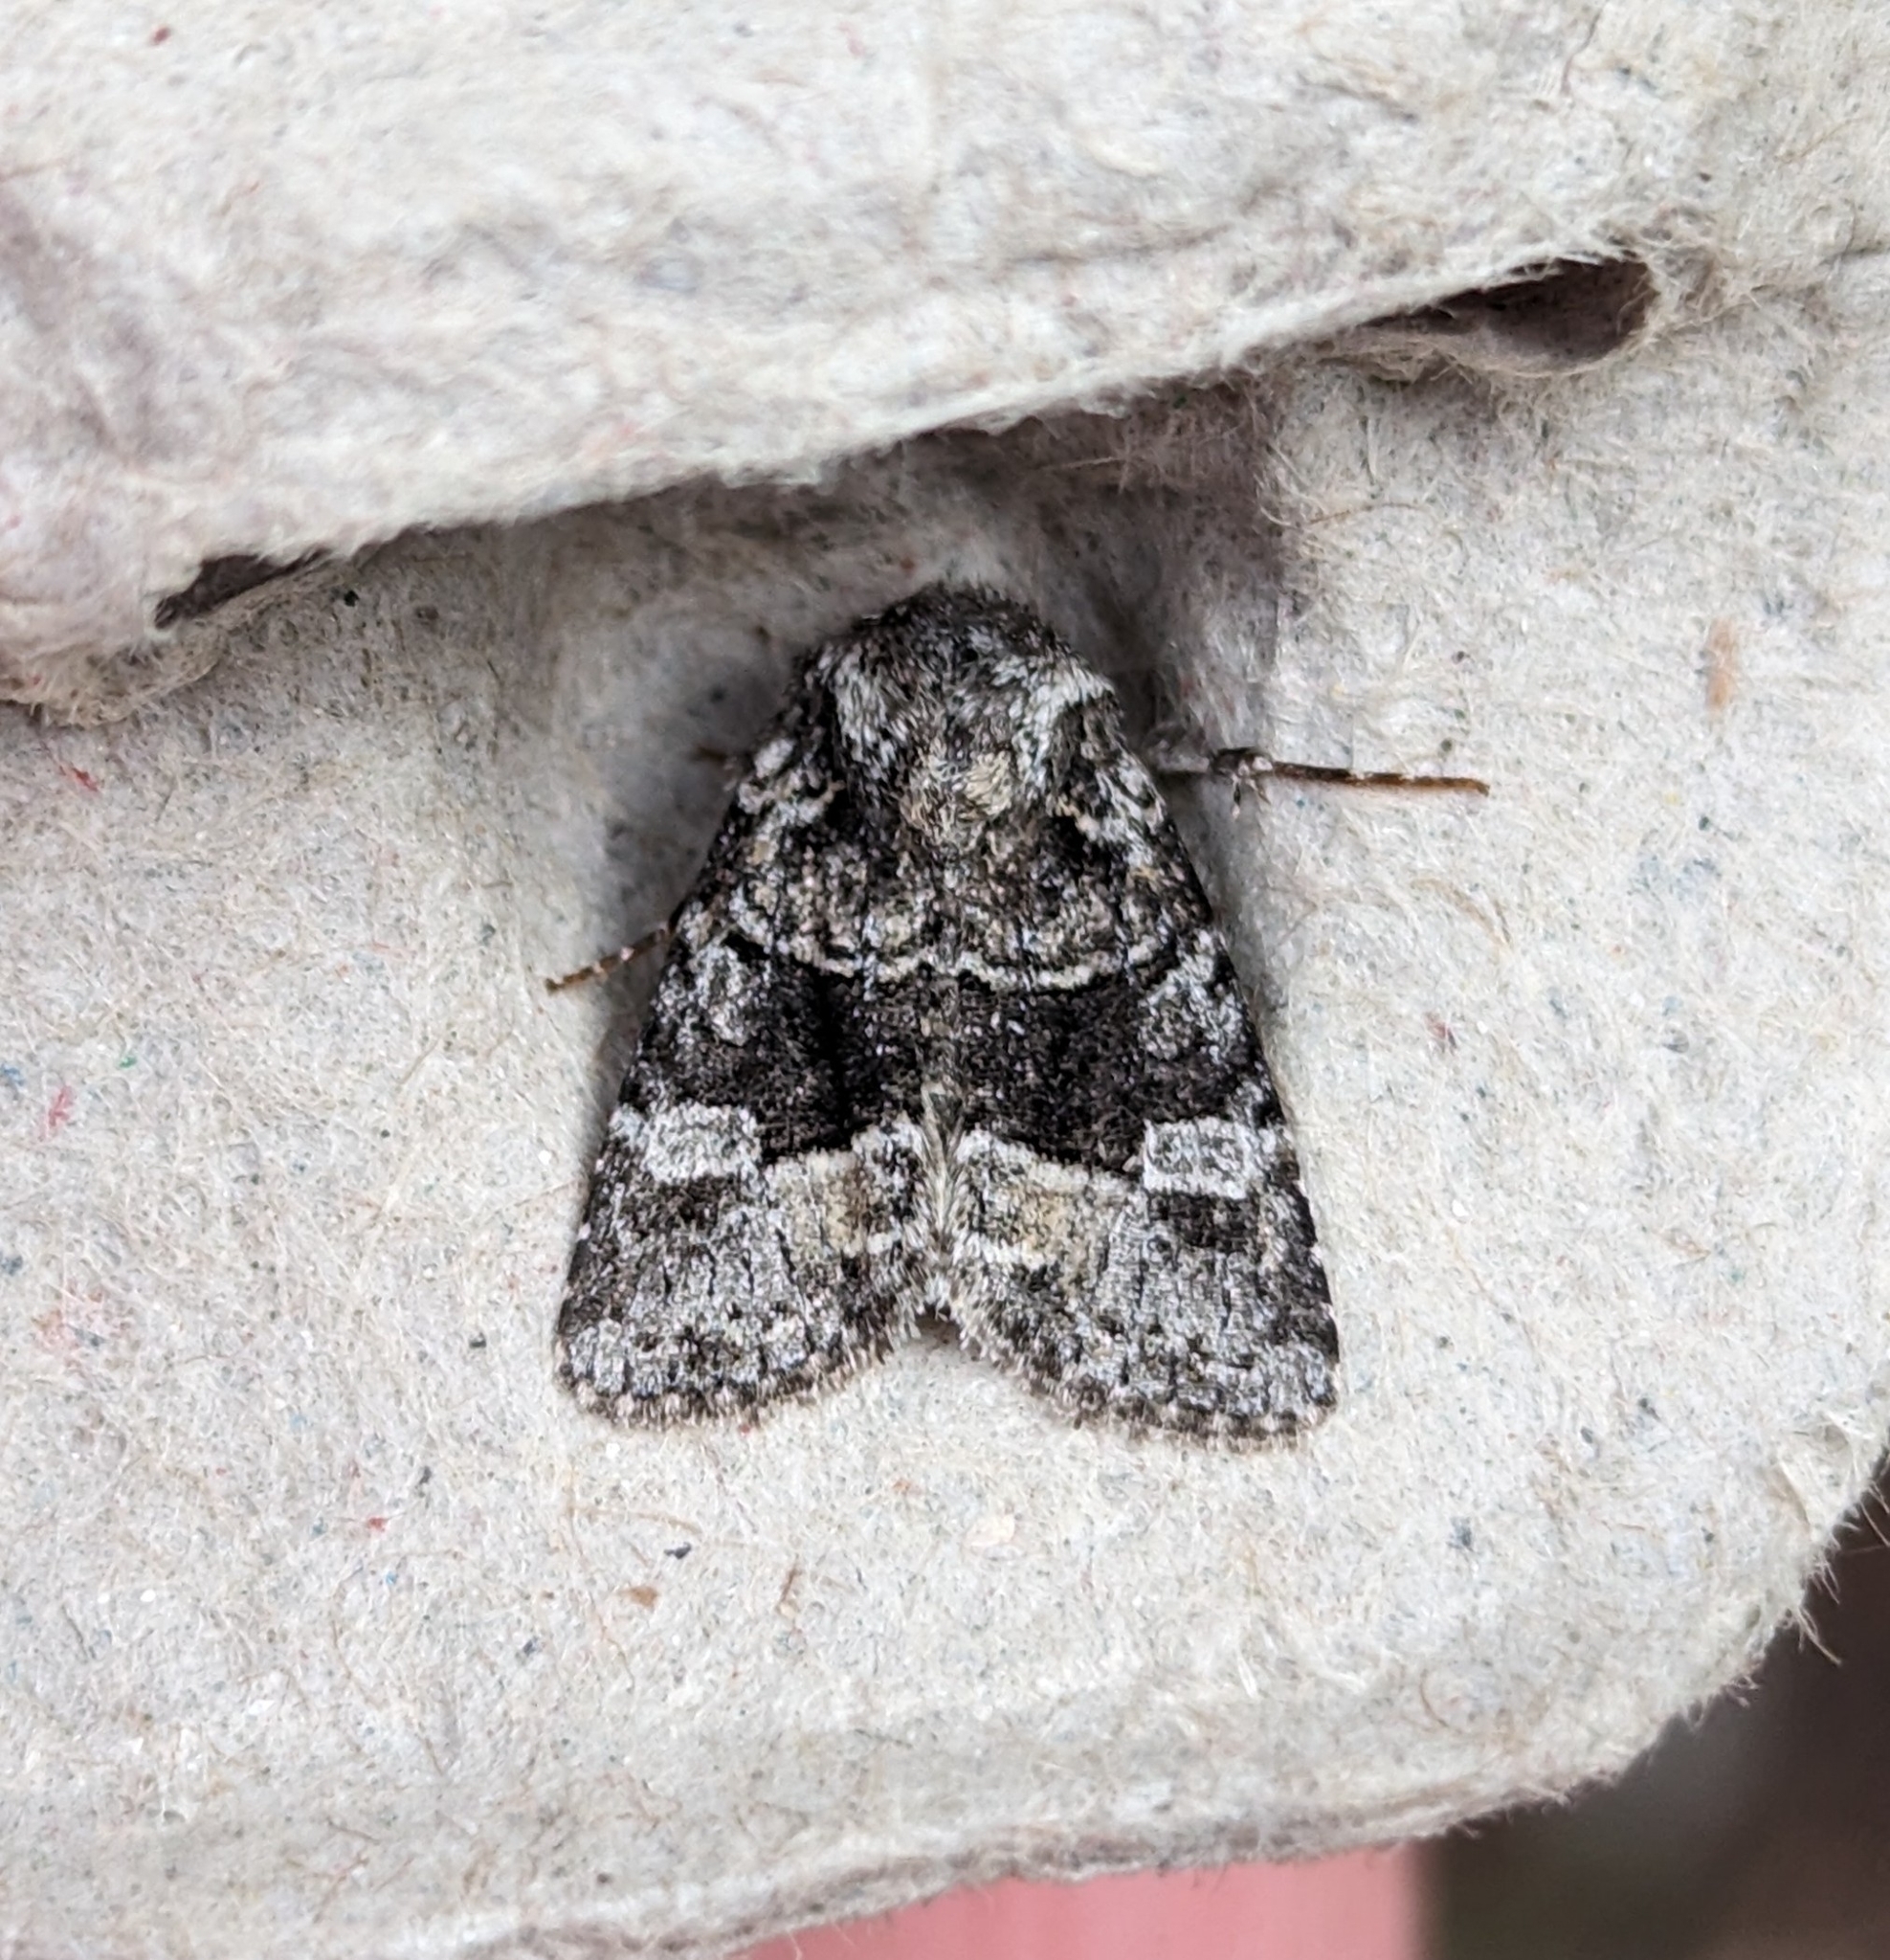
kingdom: Animalia
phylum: Arthropoda
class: Insecta
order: Lepidoptera
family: Noctuidae
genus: Lacinipolia
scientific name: Lacinipolia olivacea
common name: Olive arches moth
